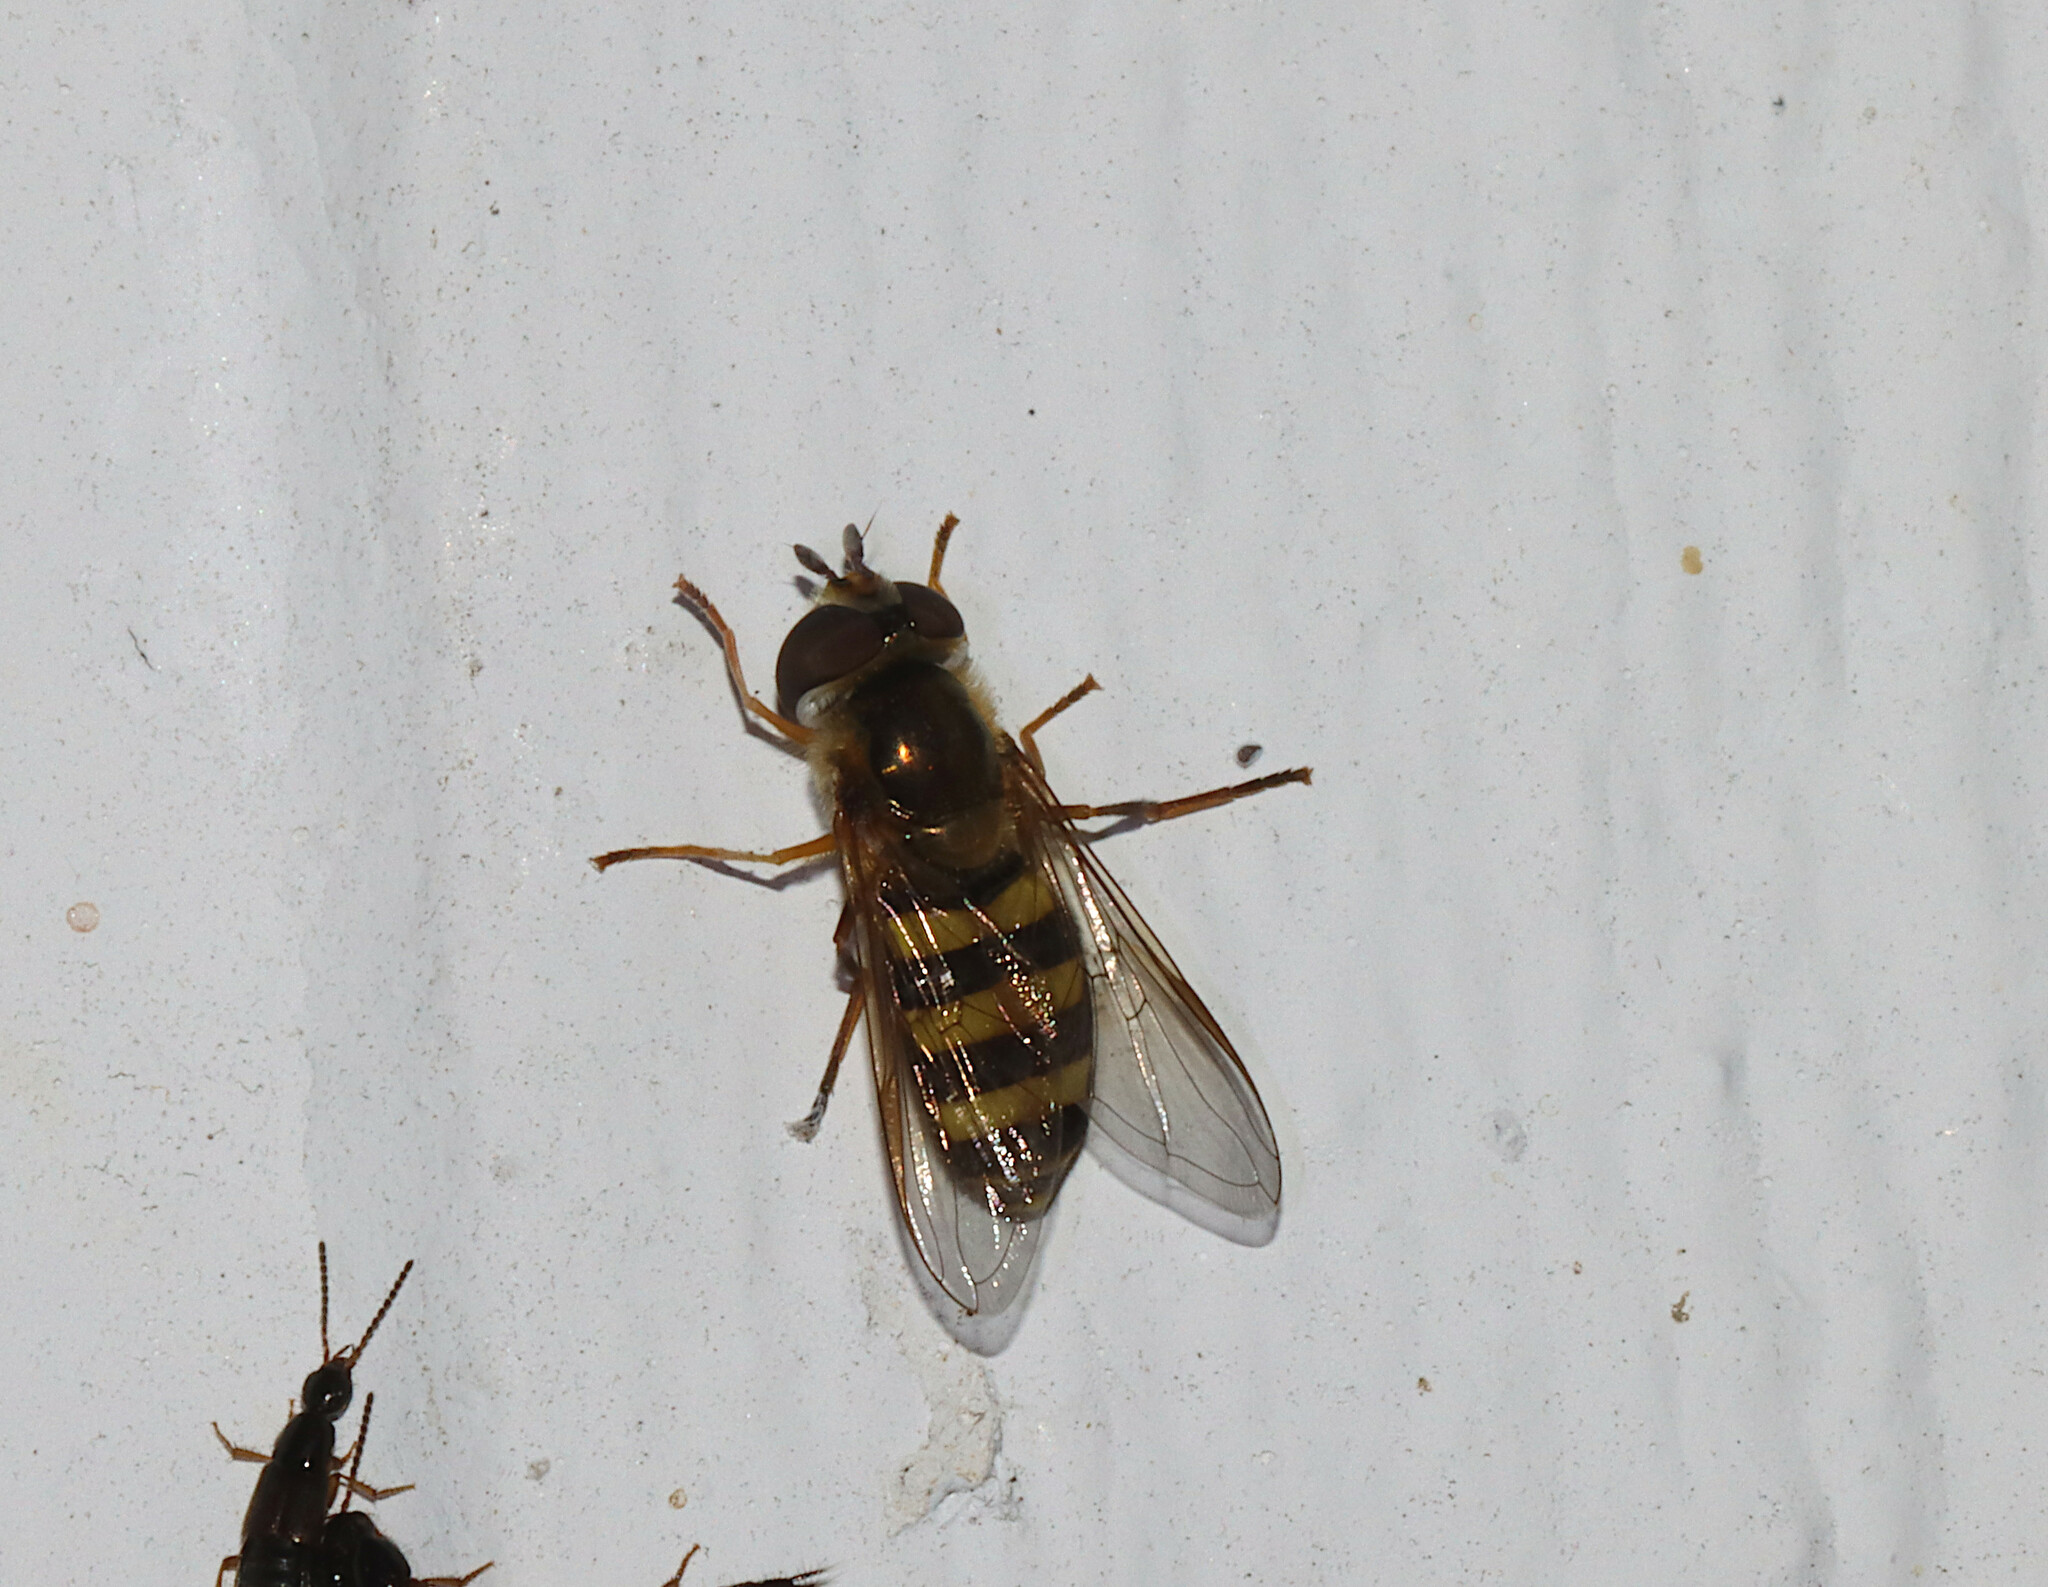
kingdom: Animalia
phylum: Arthropoda
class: Insecta
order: Diptera
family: Syrphidae
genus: Eupeodes
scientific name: Eupeodes
